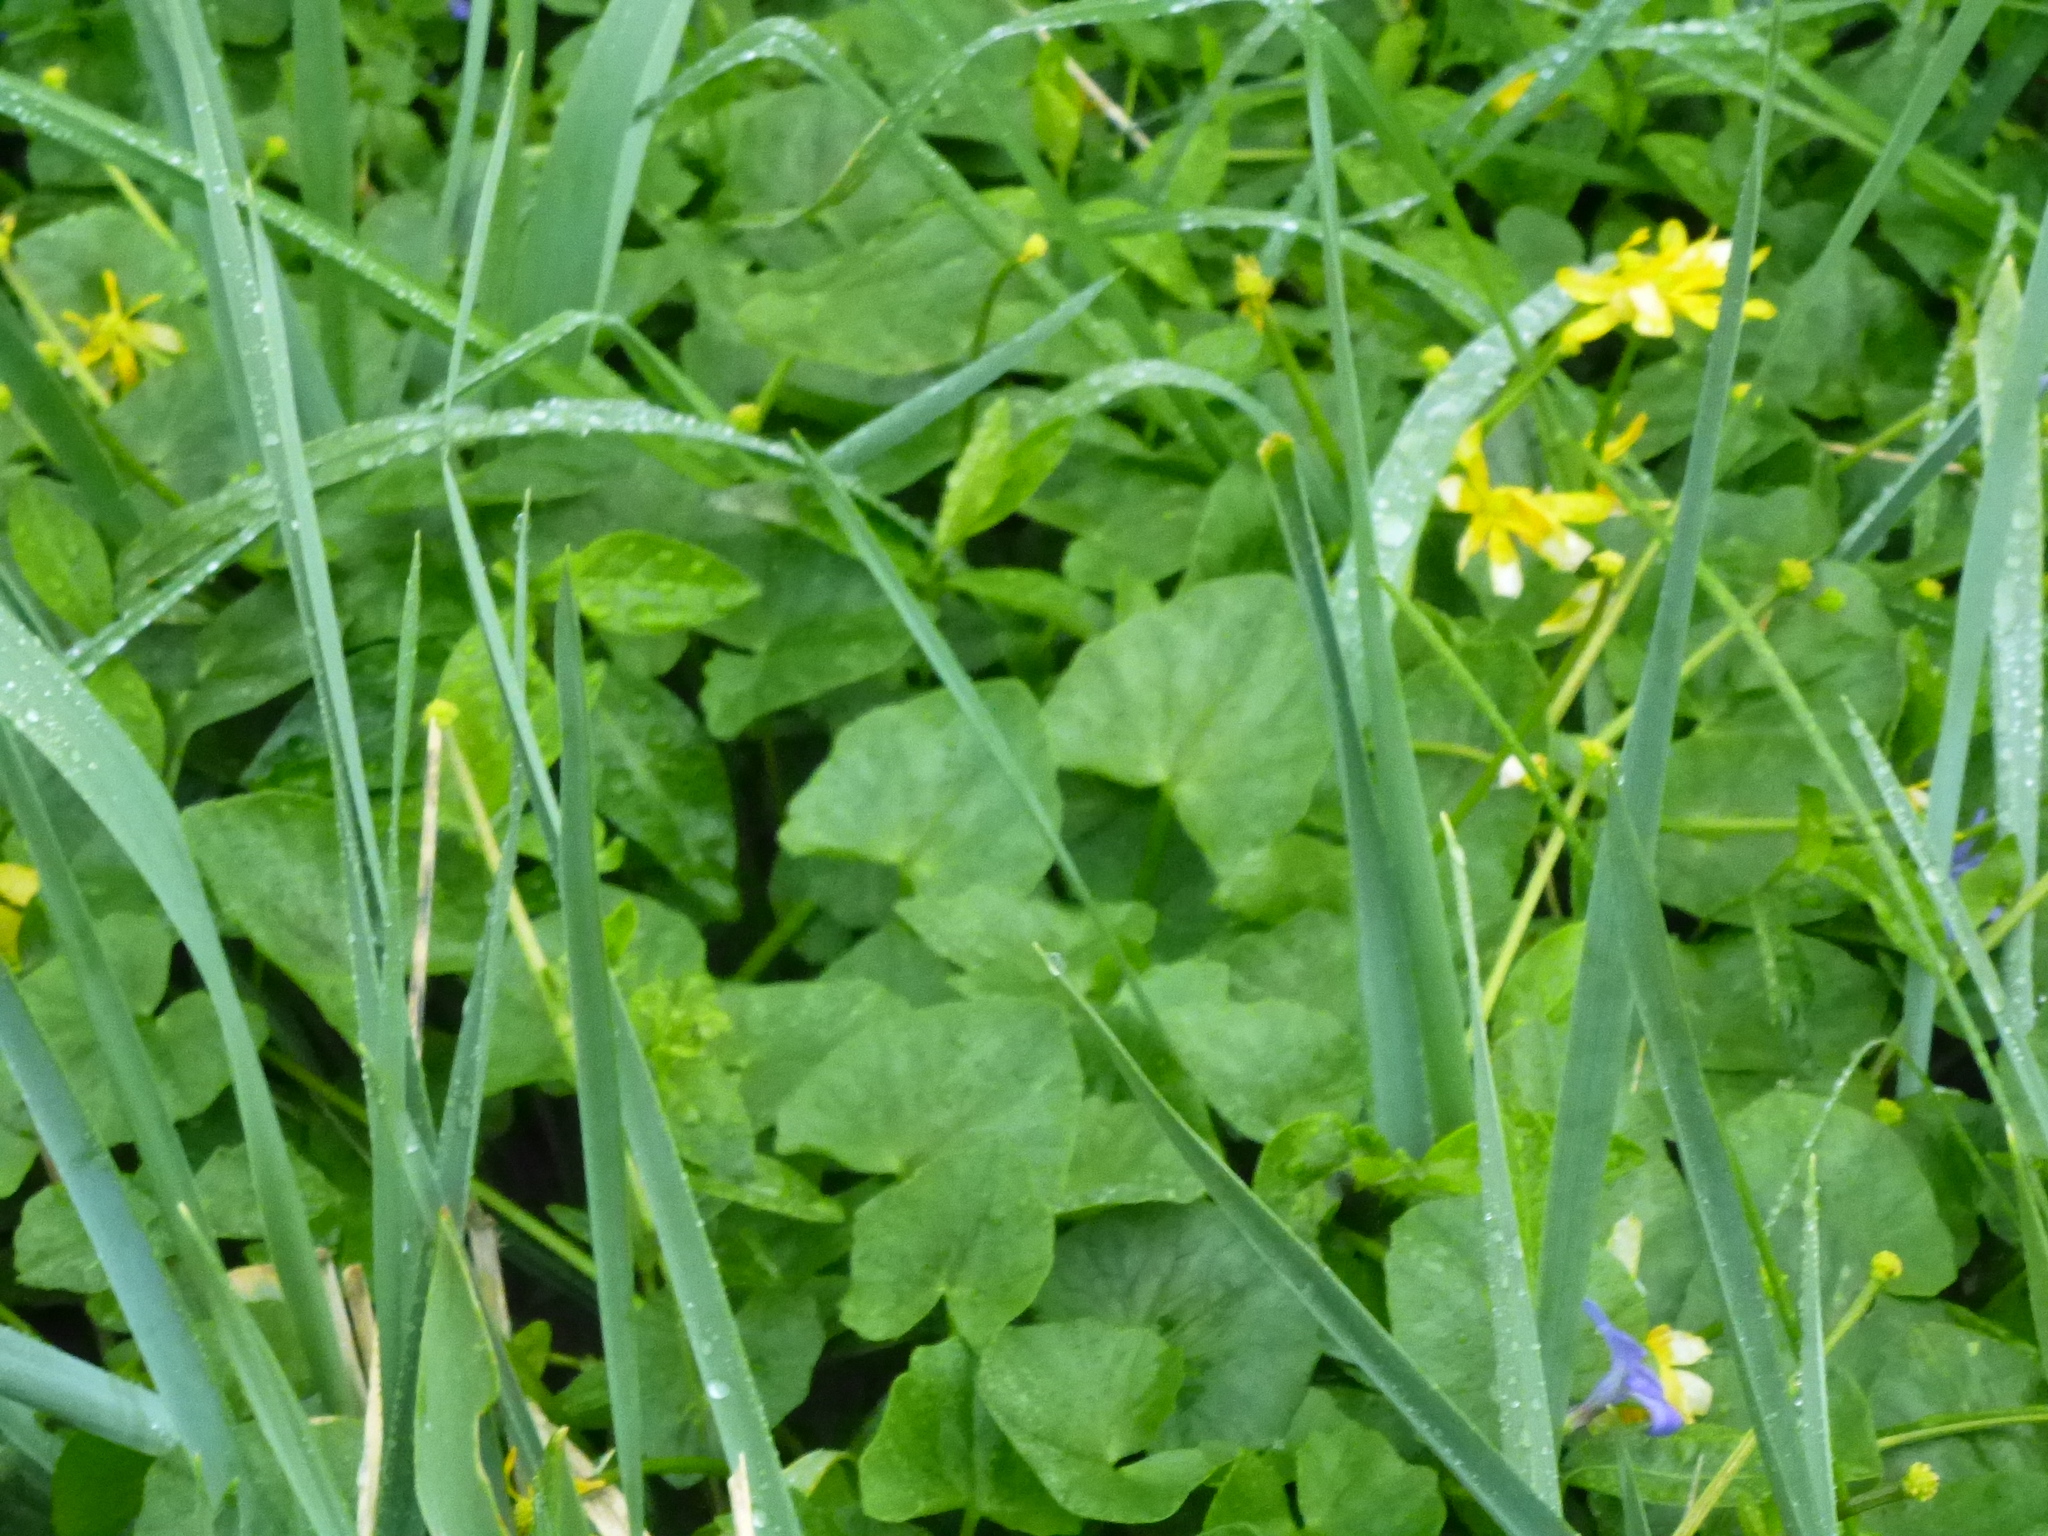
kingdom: Plantae
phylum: Tracheophyta
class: Magnoliopsida
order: Ranunculales
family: Ranunculaceae
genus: Ficaria
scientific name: Ficaria verna
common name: Lesser celandine
